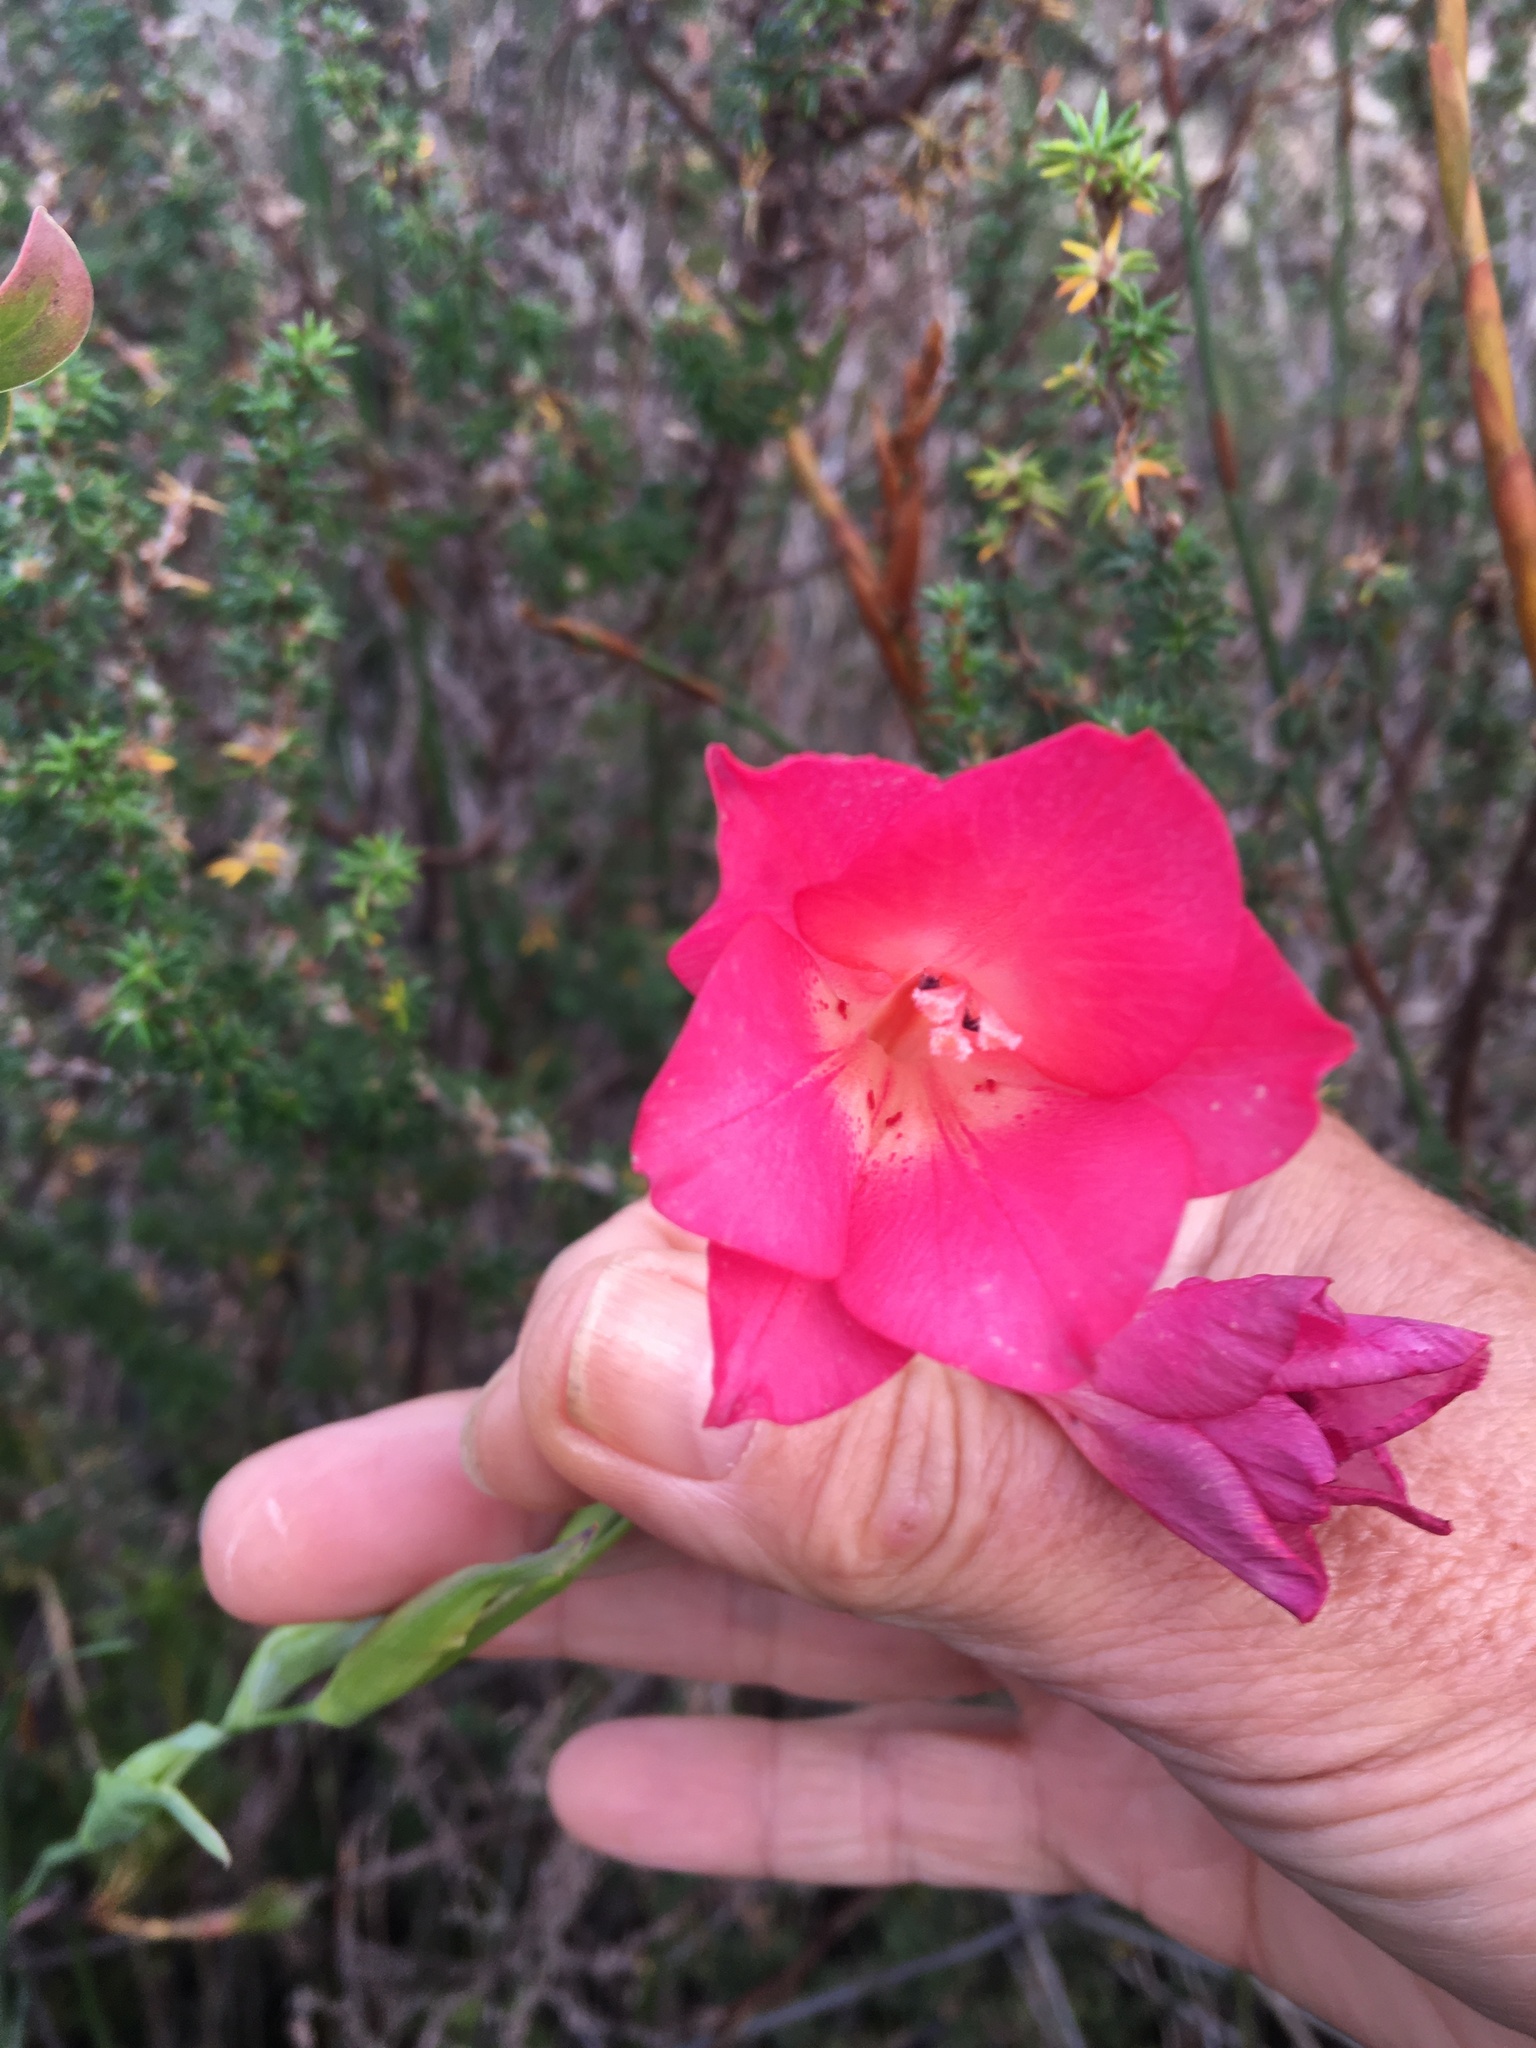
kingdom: Plantae
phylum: Tracheophyta
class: Liliopsida
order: Asparagales
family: Iridaceae
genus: Gladiolus
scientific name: Gladiolus meridionalis
